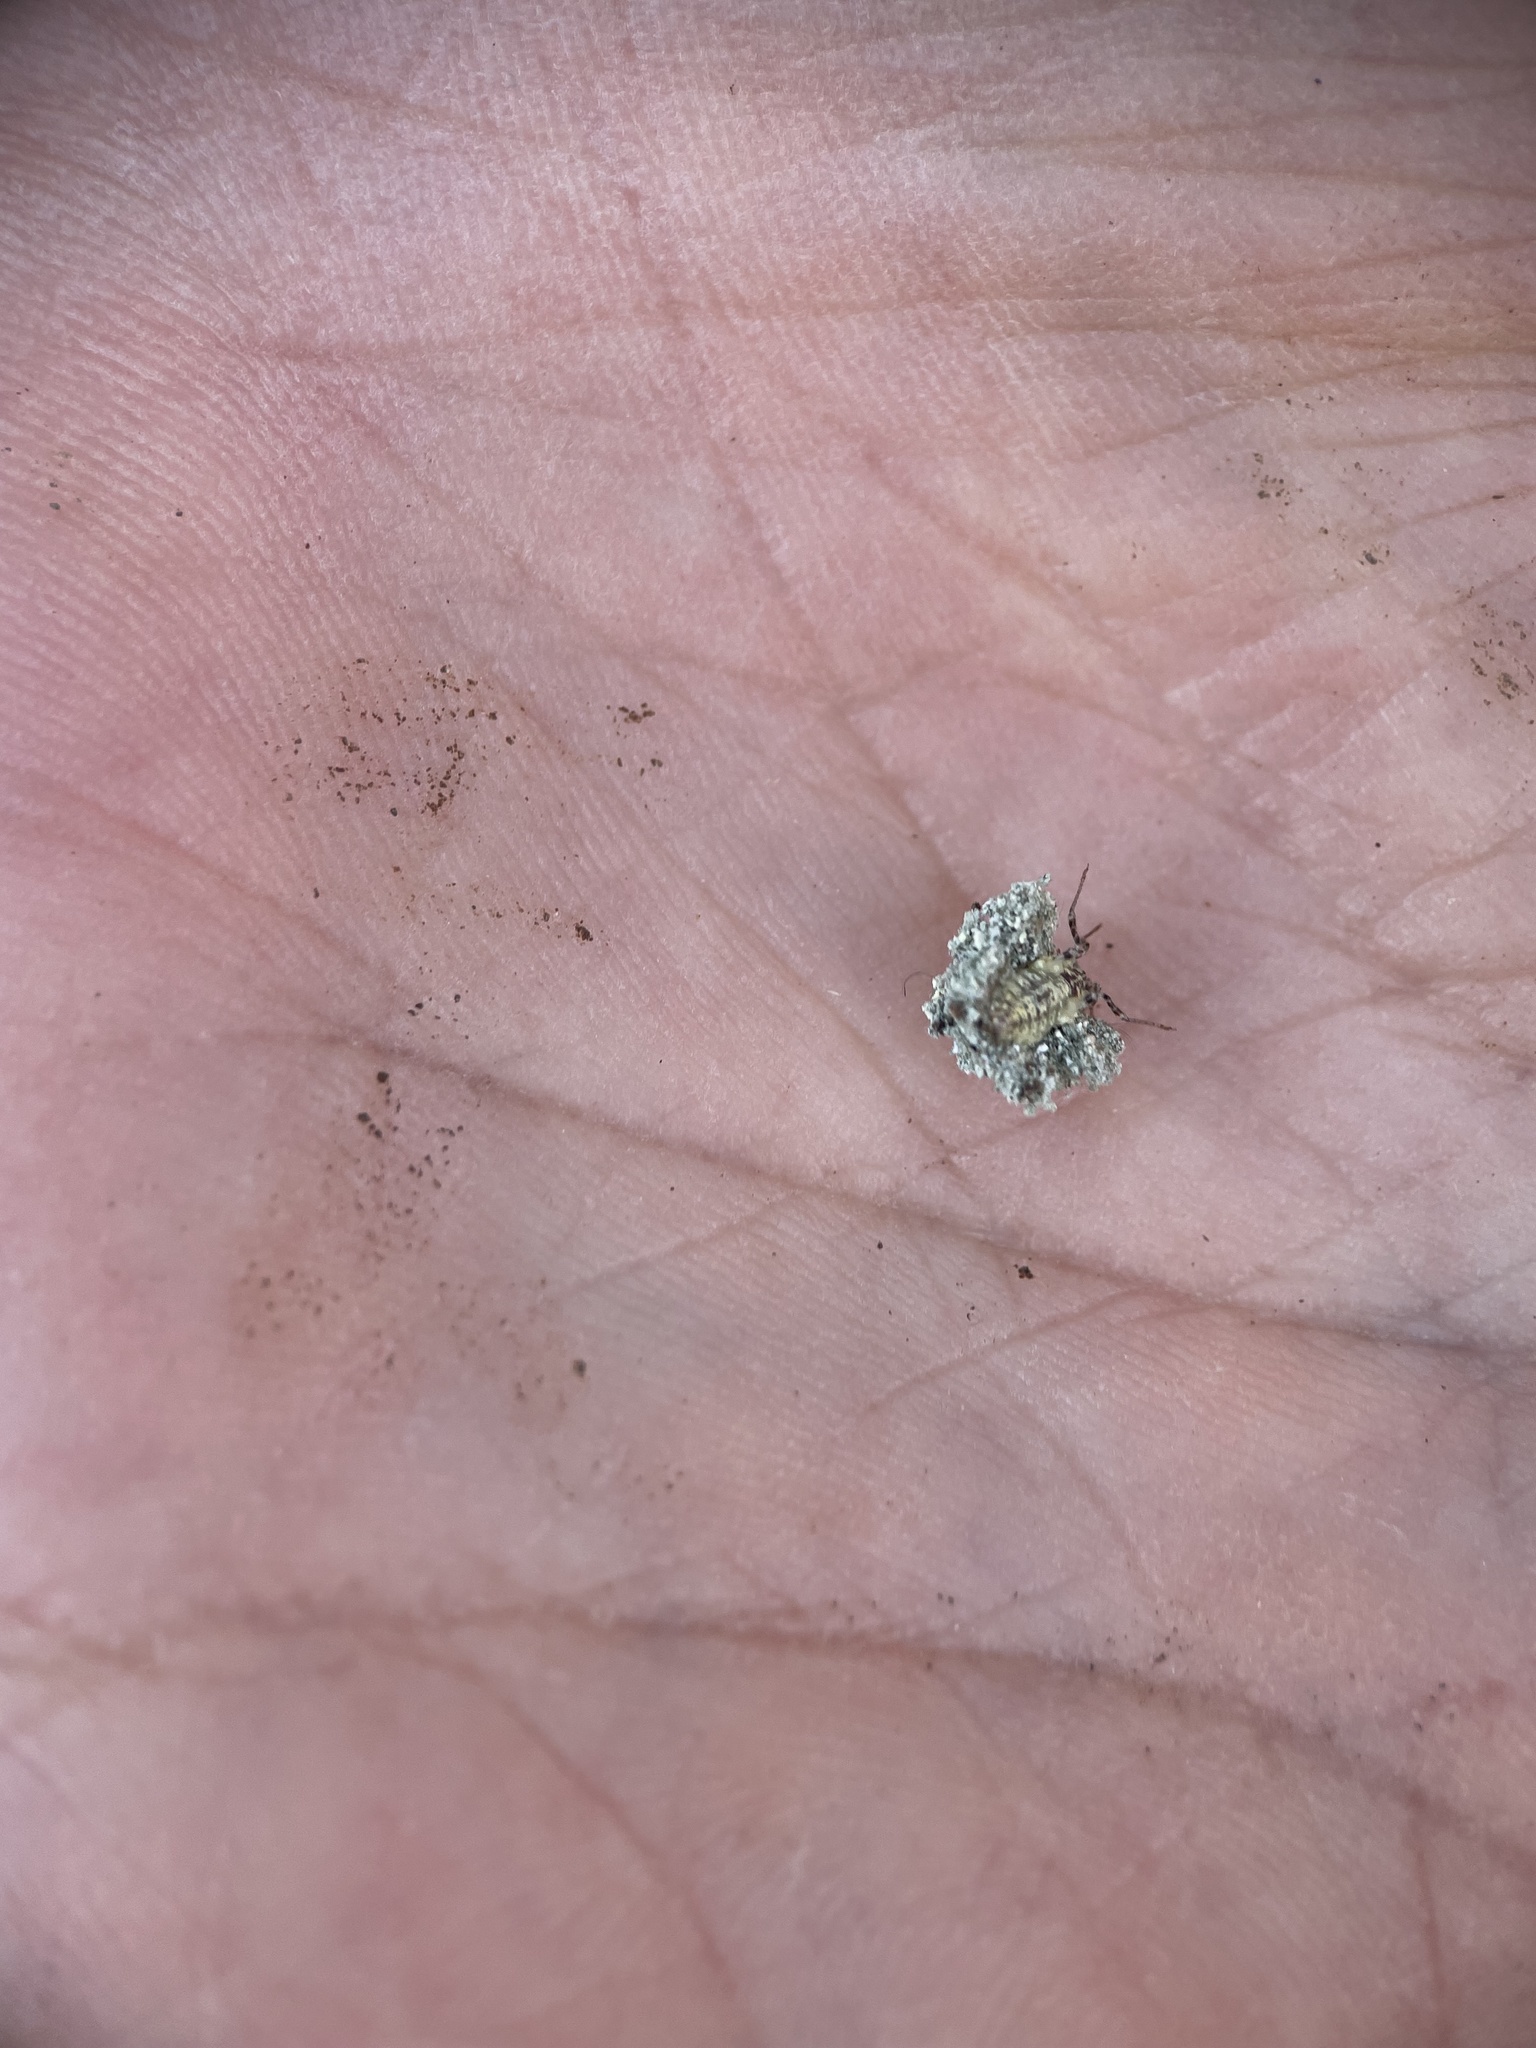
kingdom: Animalia
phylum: Arthropoda
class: Insecta
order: Neuroptera
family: Chrysopidae
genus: Leucochrysa
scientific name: Leucochrysa pavida
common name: Lichen-carrying green lacewing
